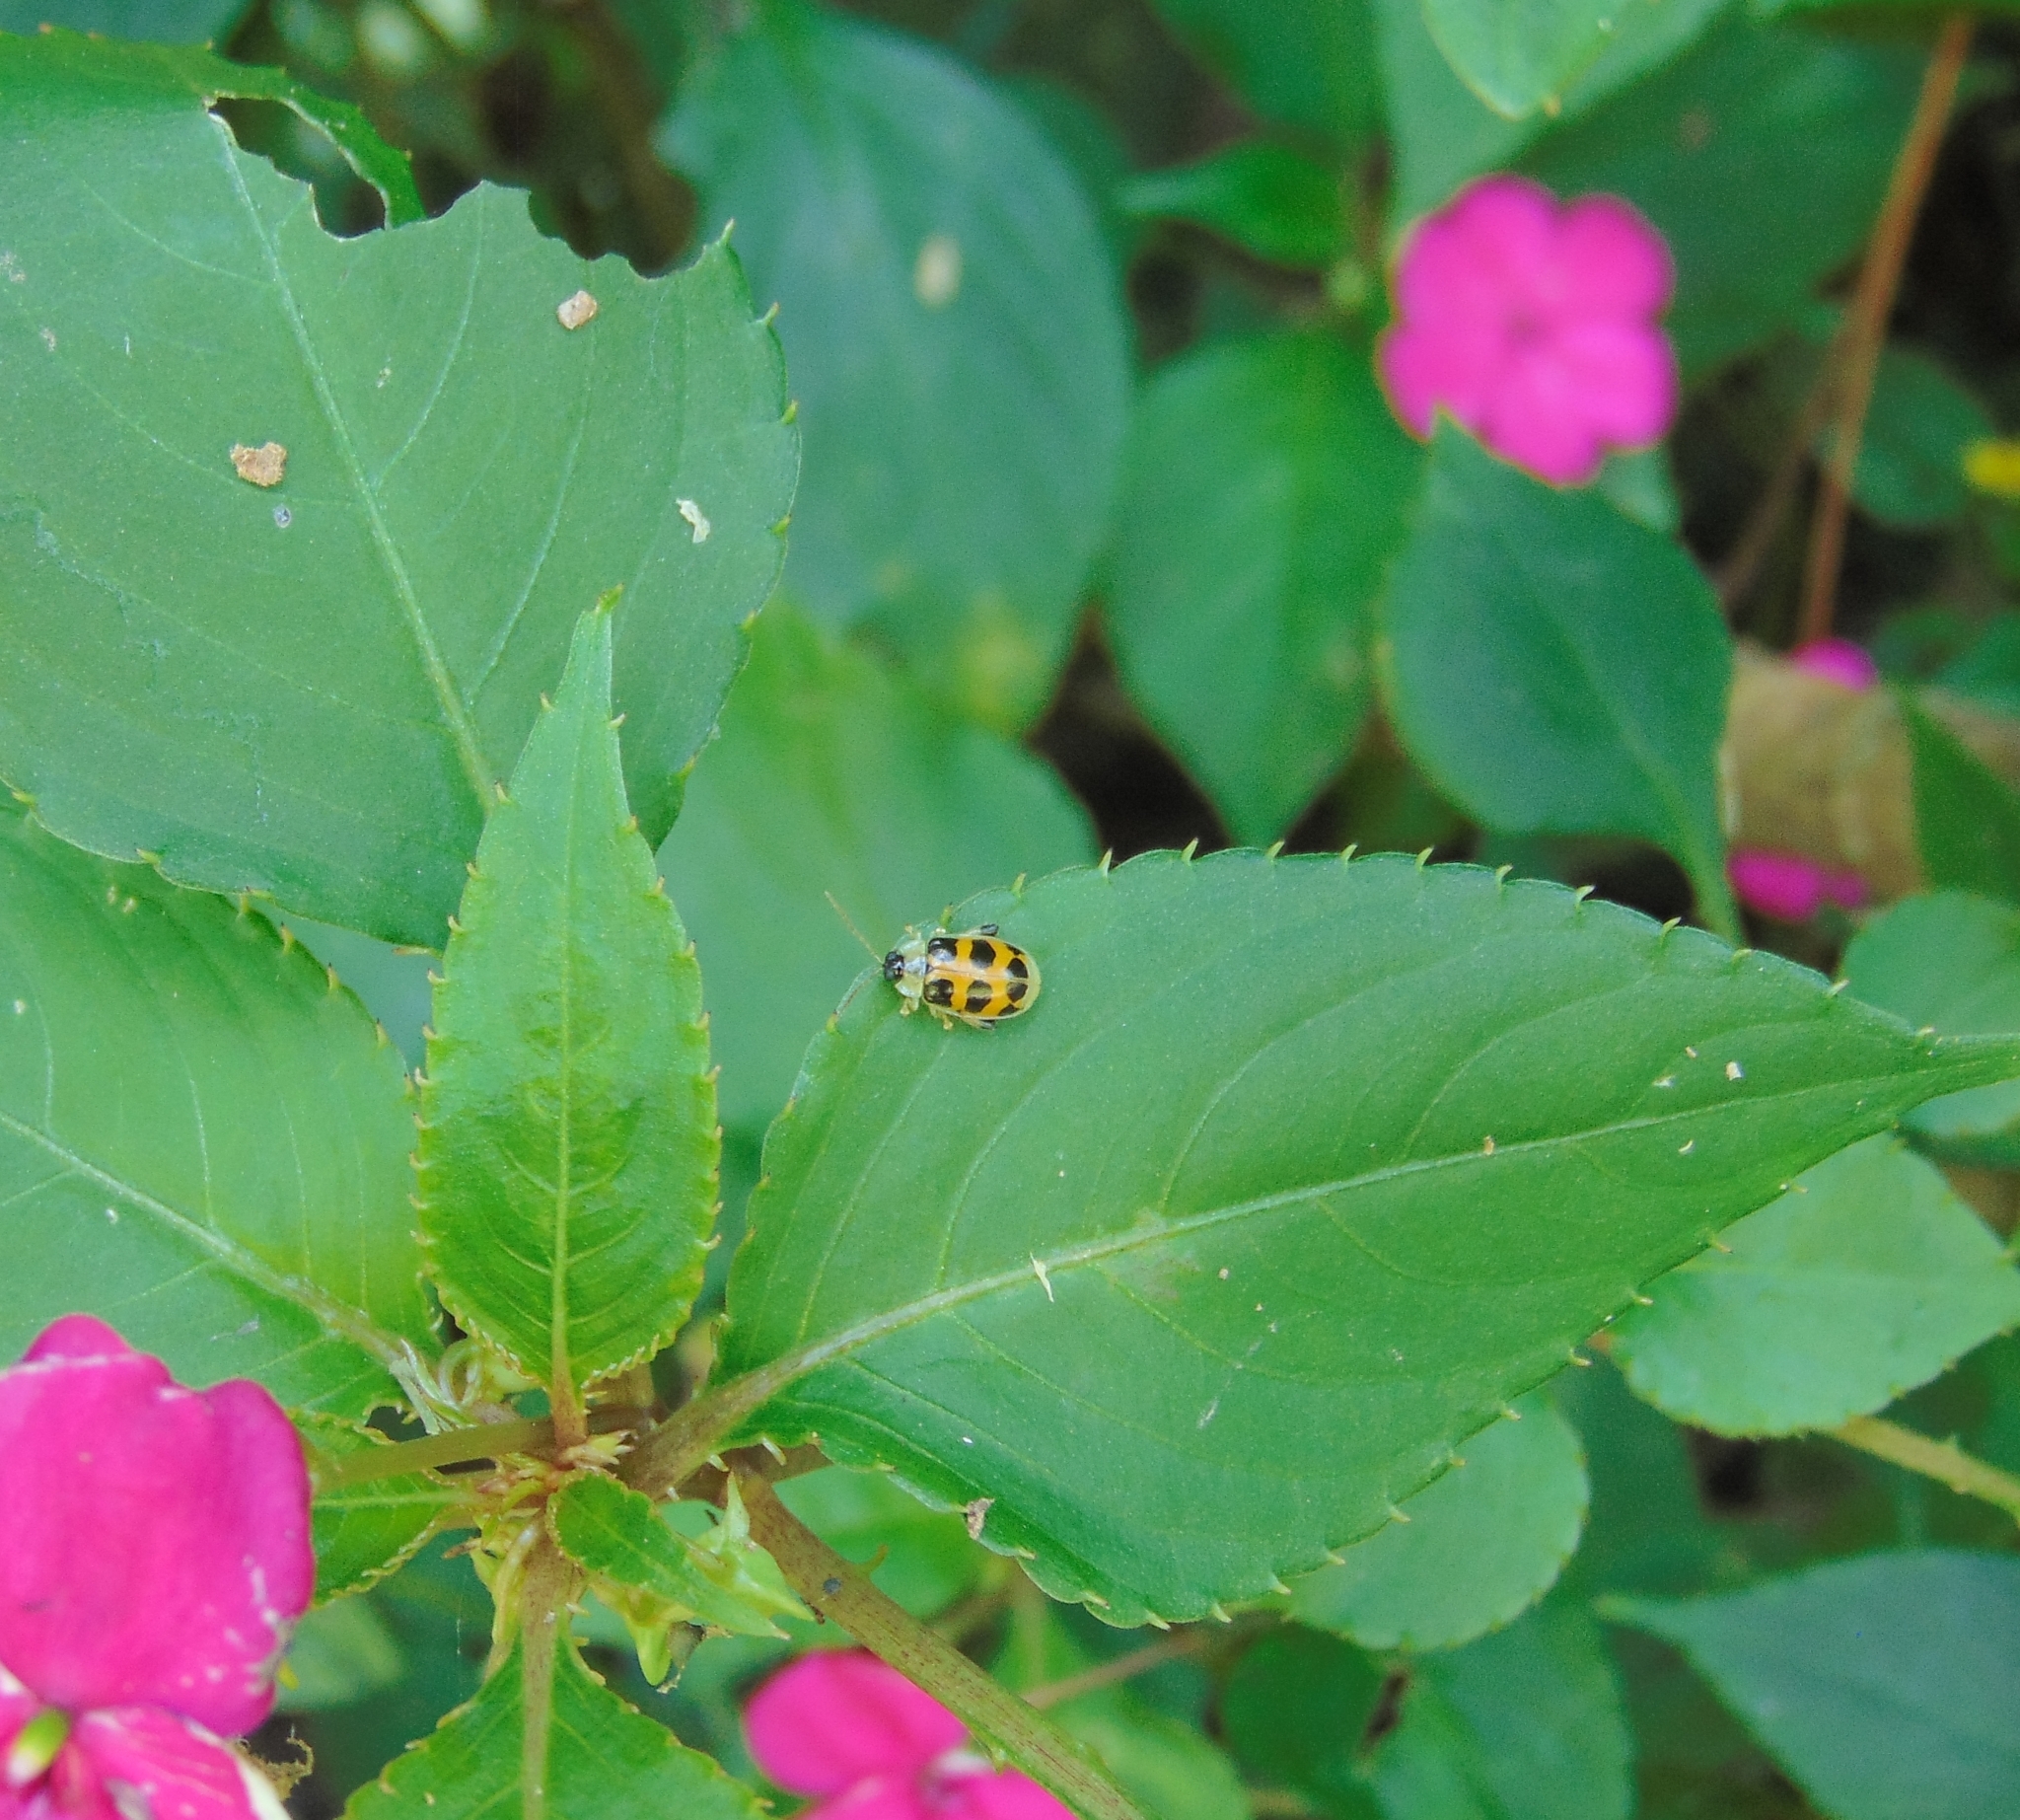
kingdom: Animalia
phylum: Arthropoda
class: Insecta
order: Coleoptera
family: Chrysomelidae
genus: Diabrotica
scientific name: Diabrotica limitata
